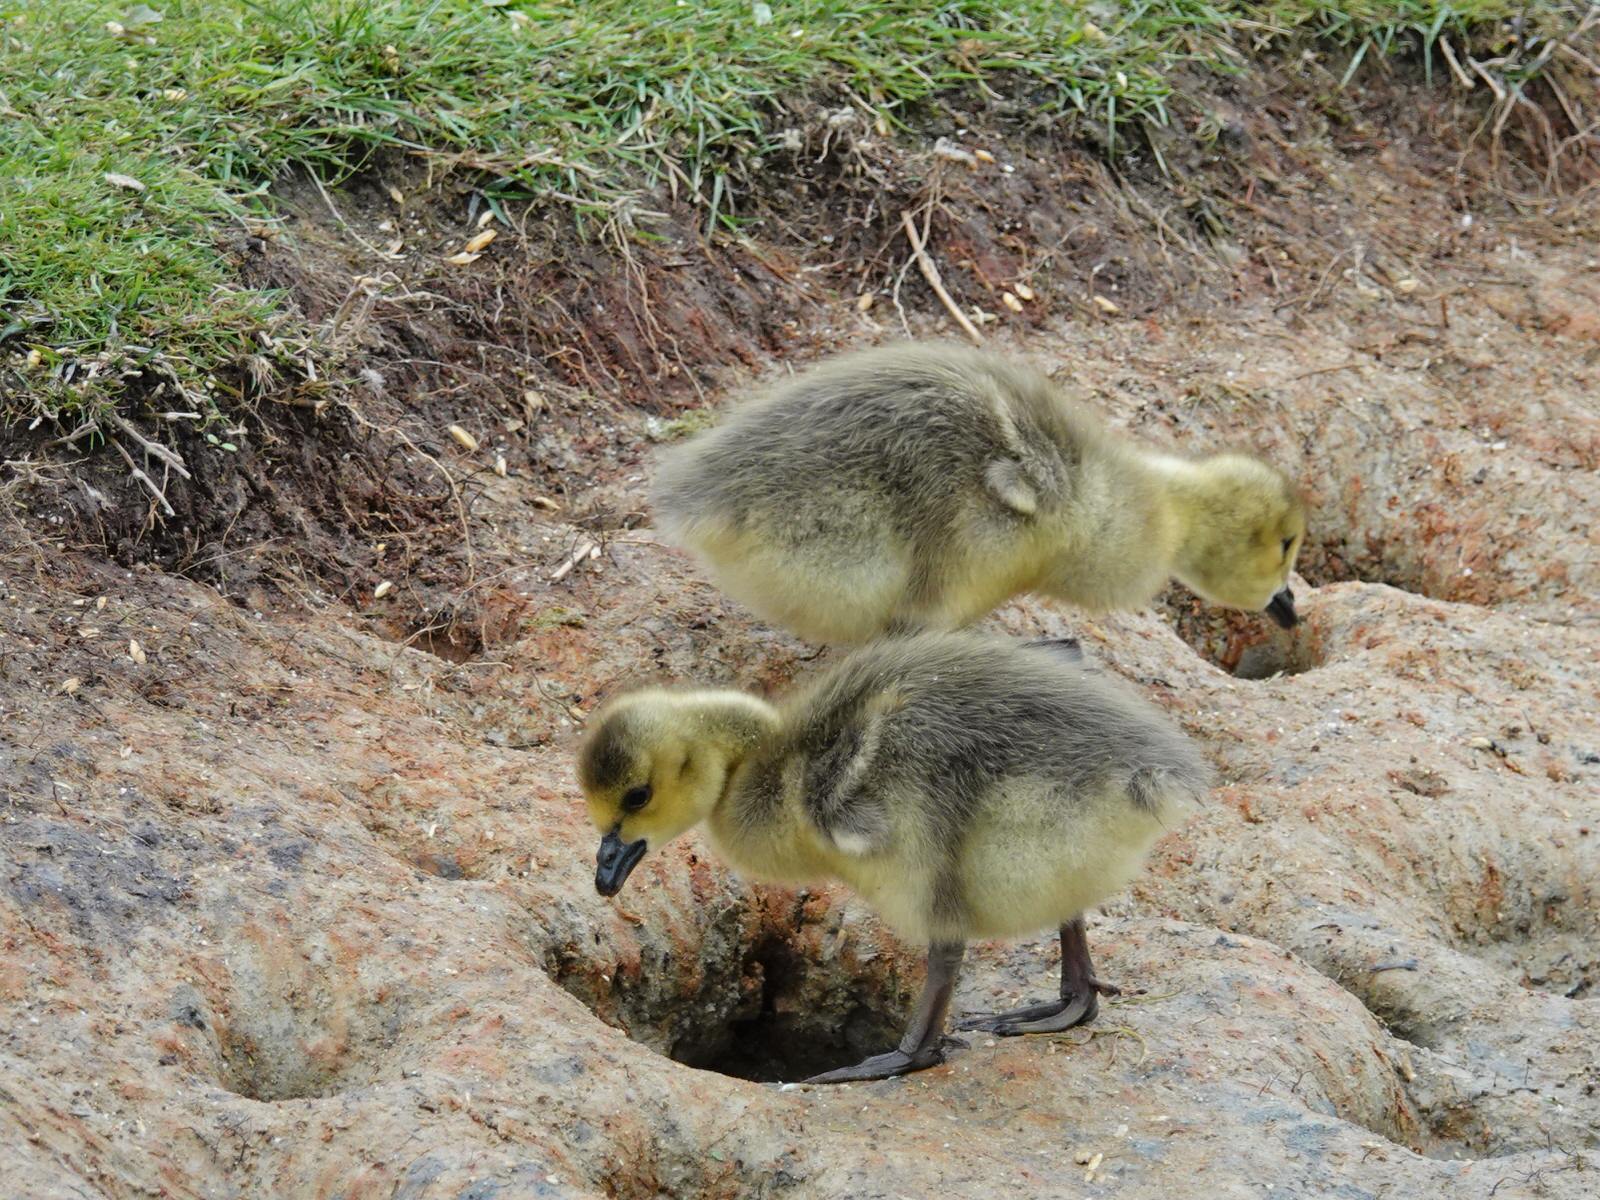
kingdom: Animalia
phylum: Chordata
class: Aves
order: Anseriformes
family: Anatidae
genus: Branta
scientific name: Branta canadensis
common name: Canada goose
